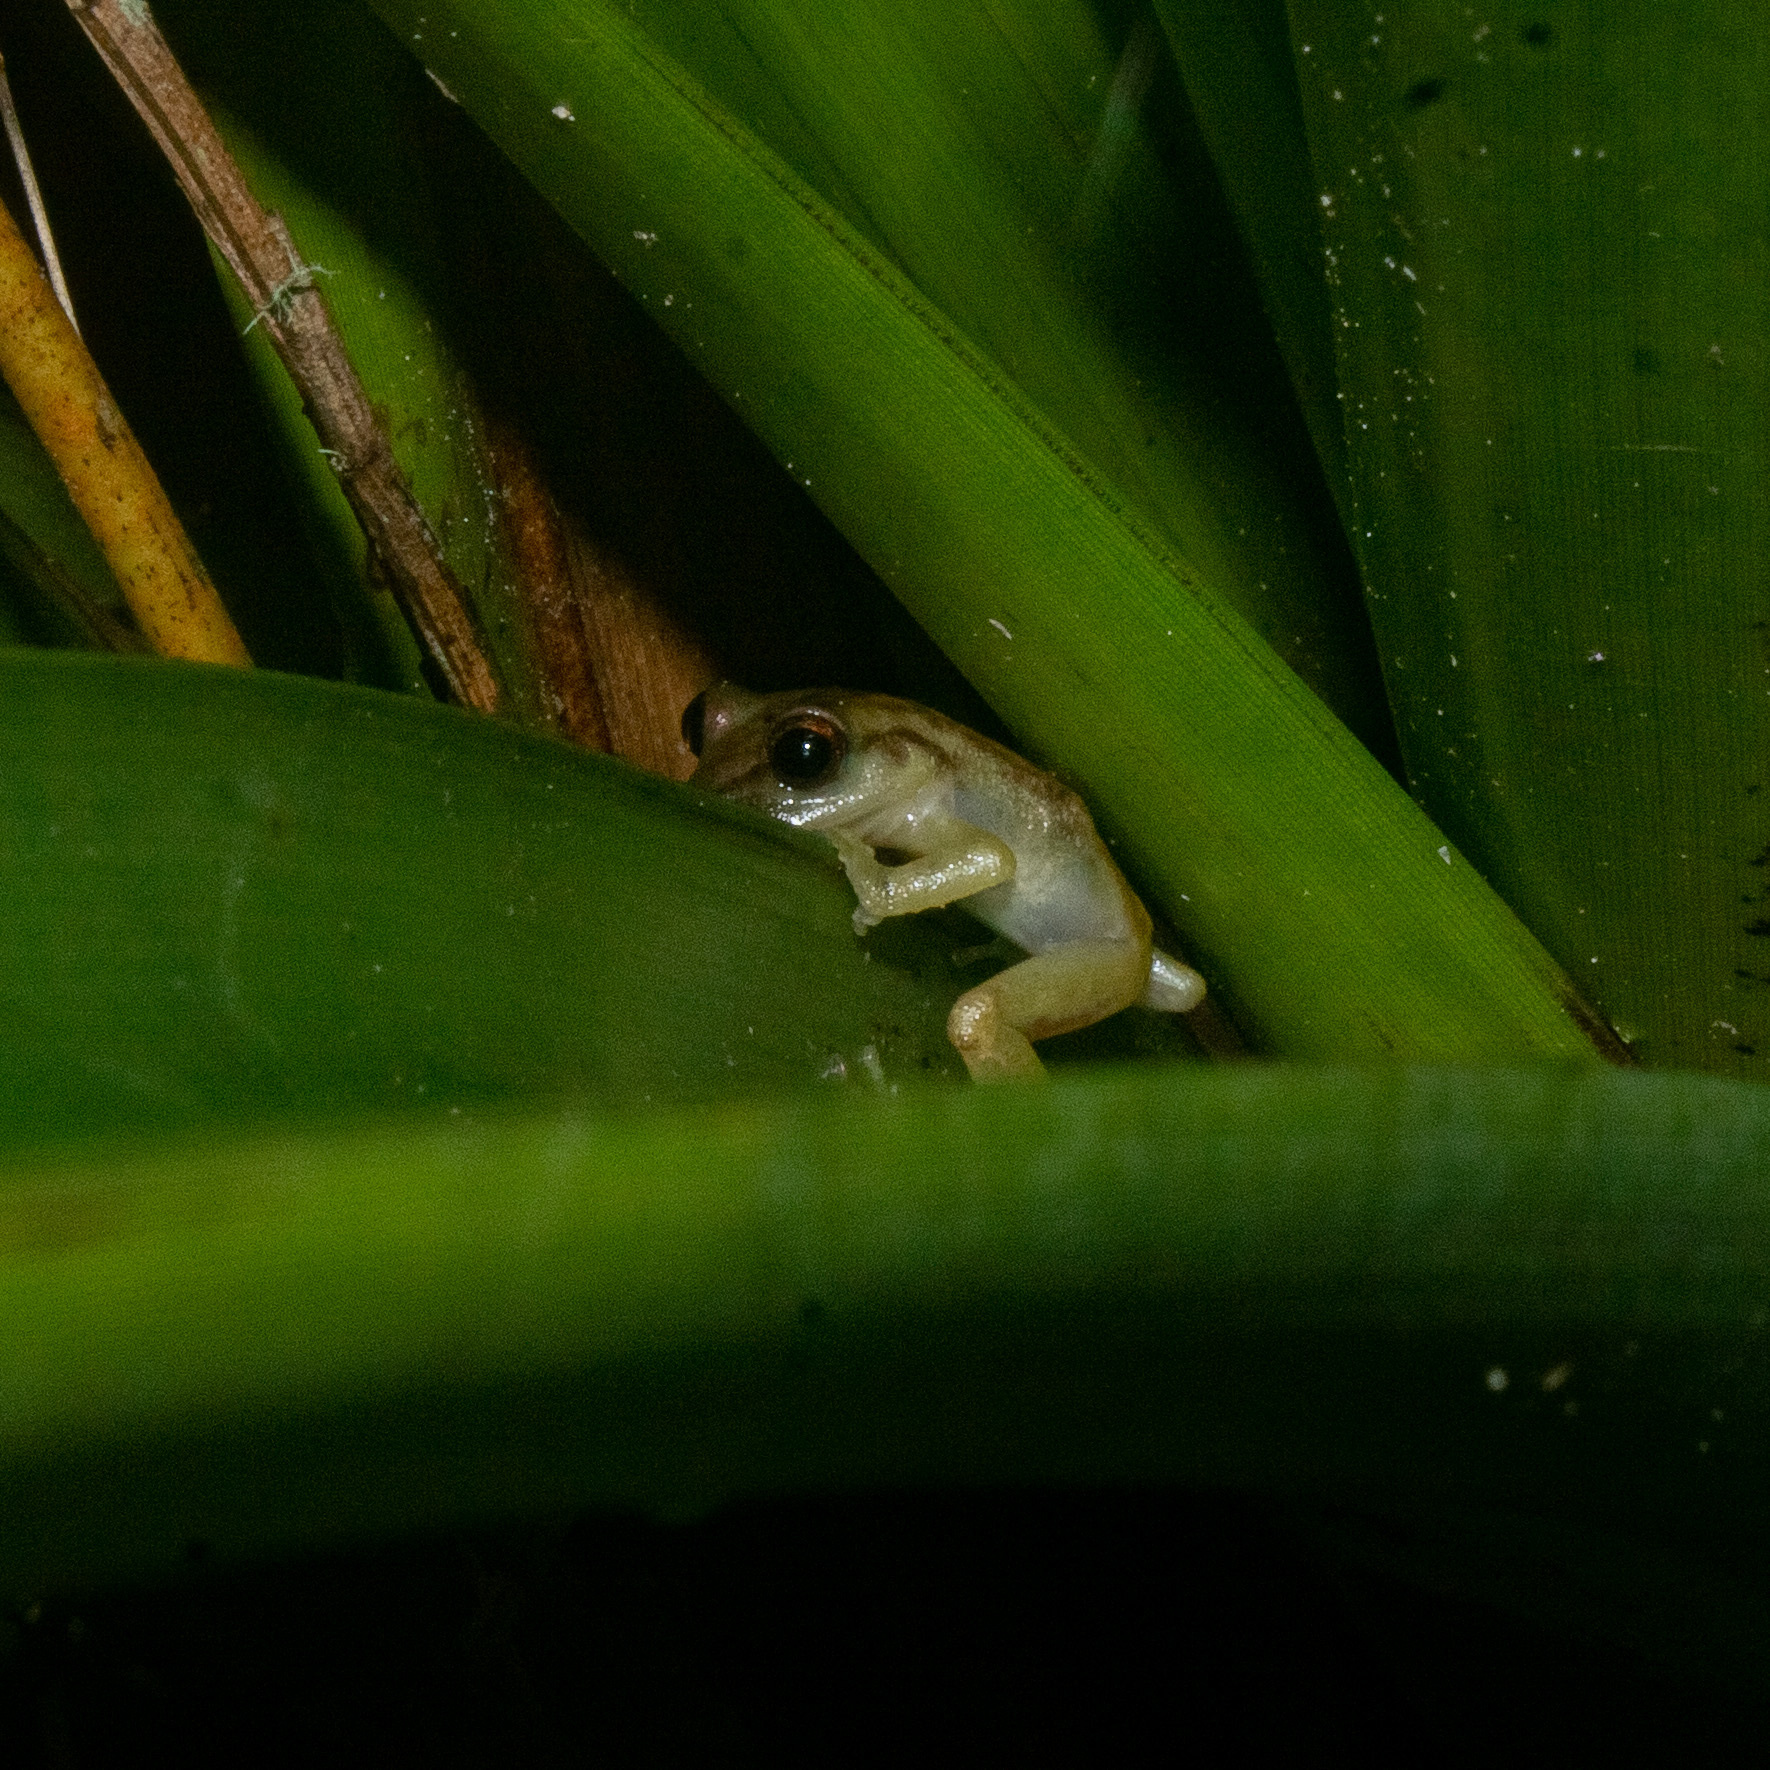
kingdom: Animalia
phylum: Chordata
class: Amphibia
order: Anura
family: Craugastoridae
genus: Tachiramantis
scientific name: Tachiramantis
